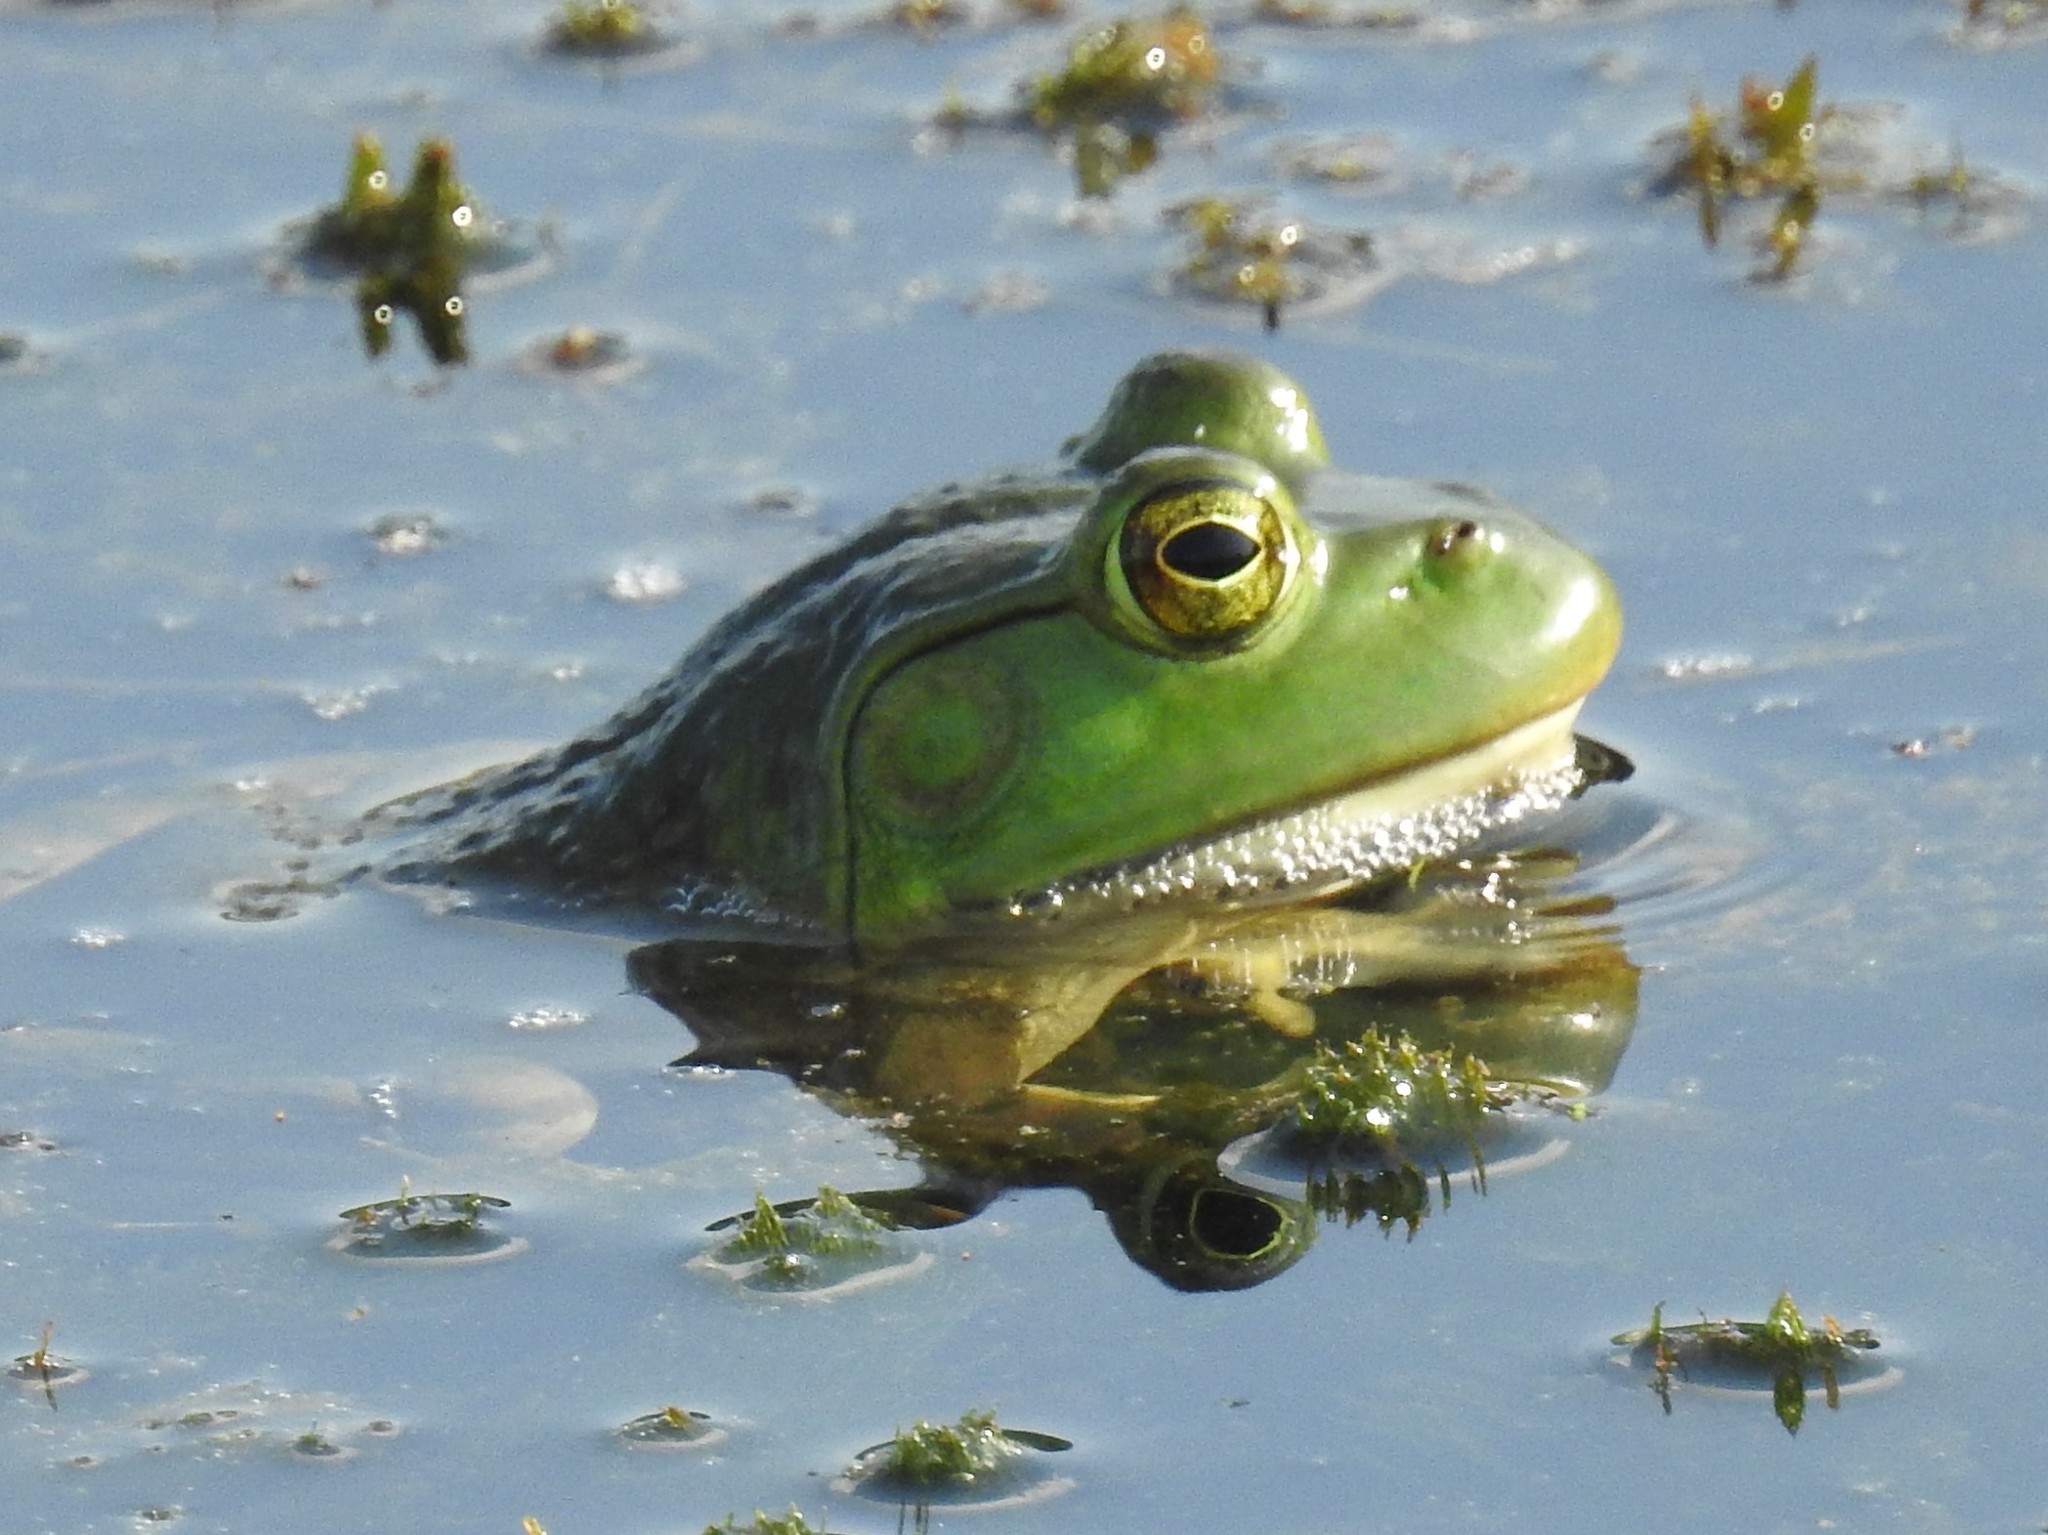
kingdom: Animalia
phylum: Chordata
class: Amphibia
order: Anura
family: Ranidae
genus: Lithobates
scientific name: Lithobates catesbeianus
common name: American bullfrog
